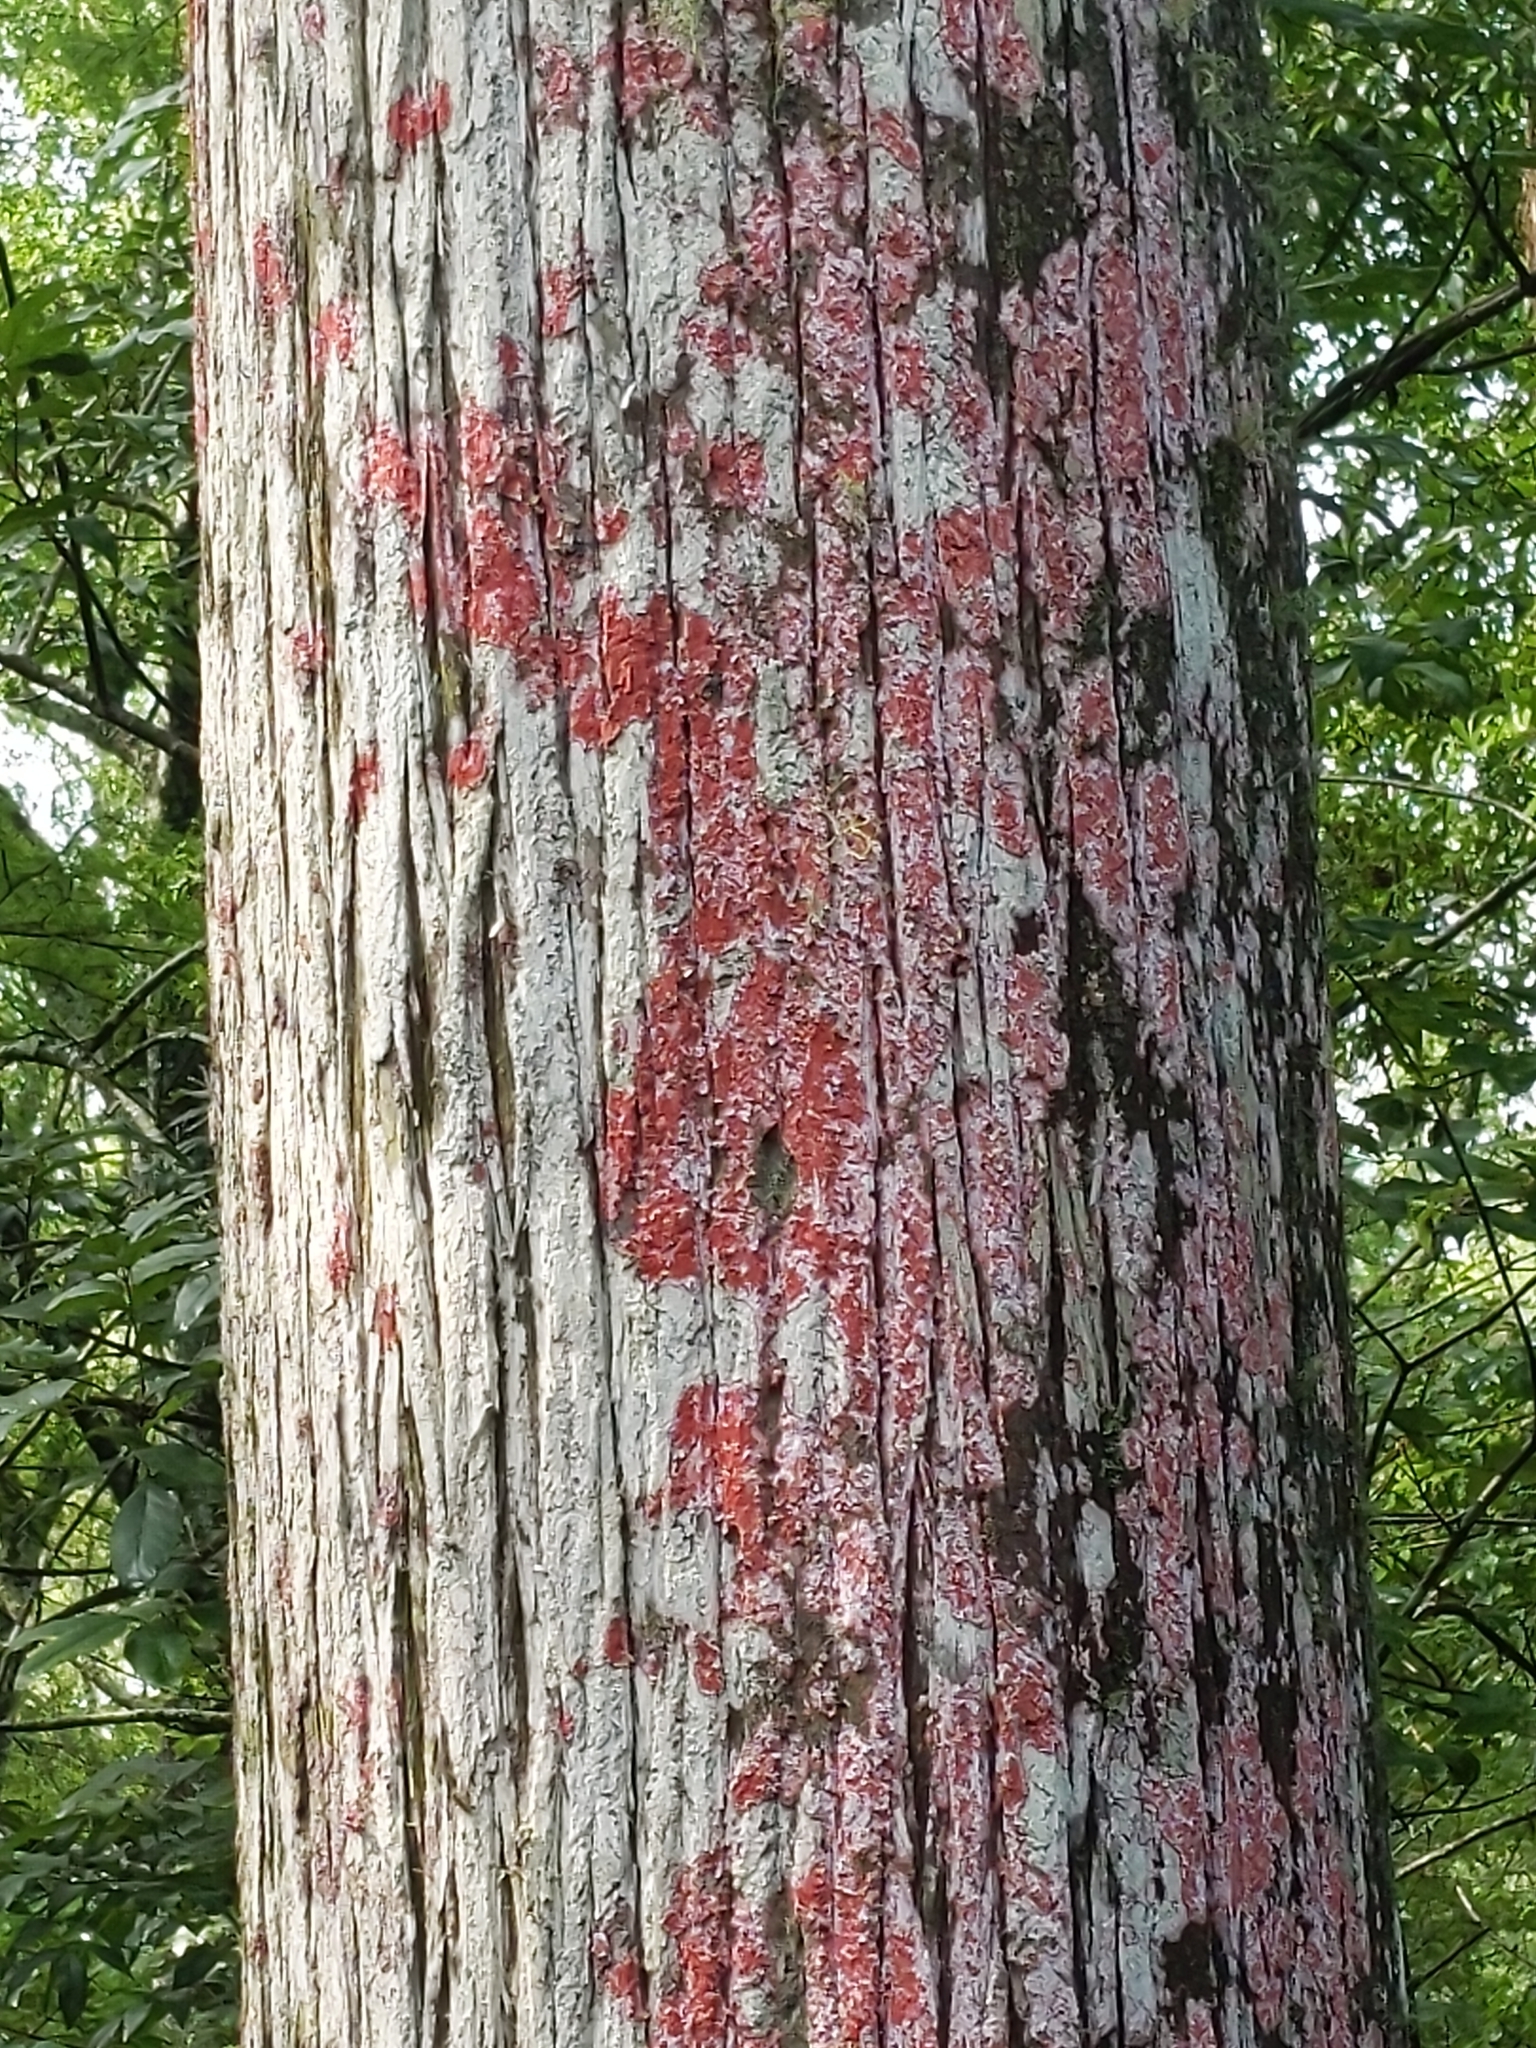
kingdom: Fungi
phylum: Ascomycota
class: Arthoniomycetes
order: Arthoniales
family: Arthoniaceae
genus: Herpothallon
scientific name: Herpothallon rubrocinctum
